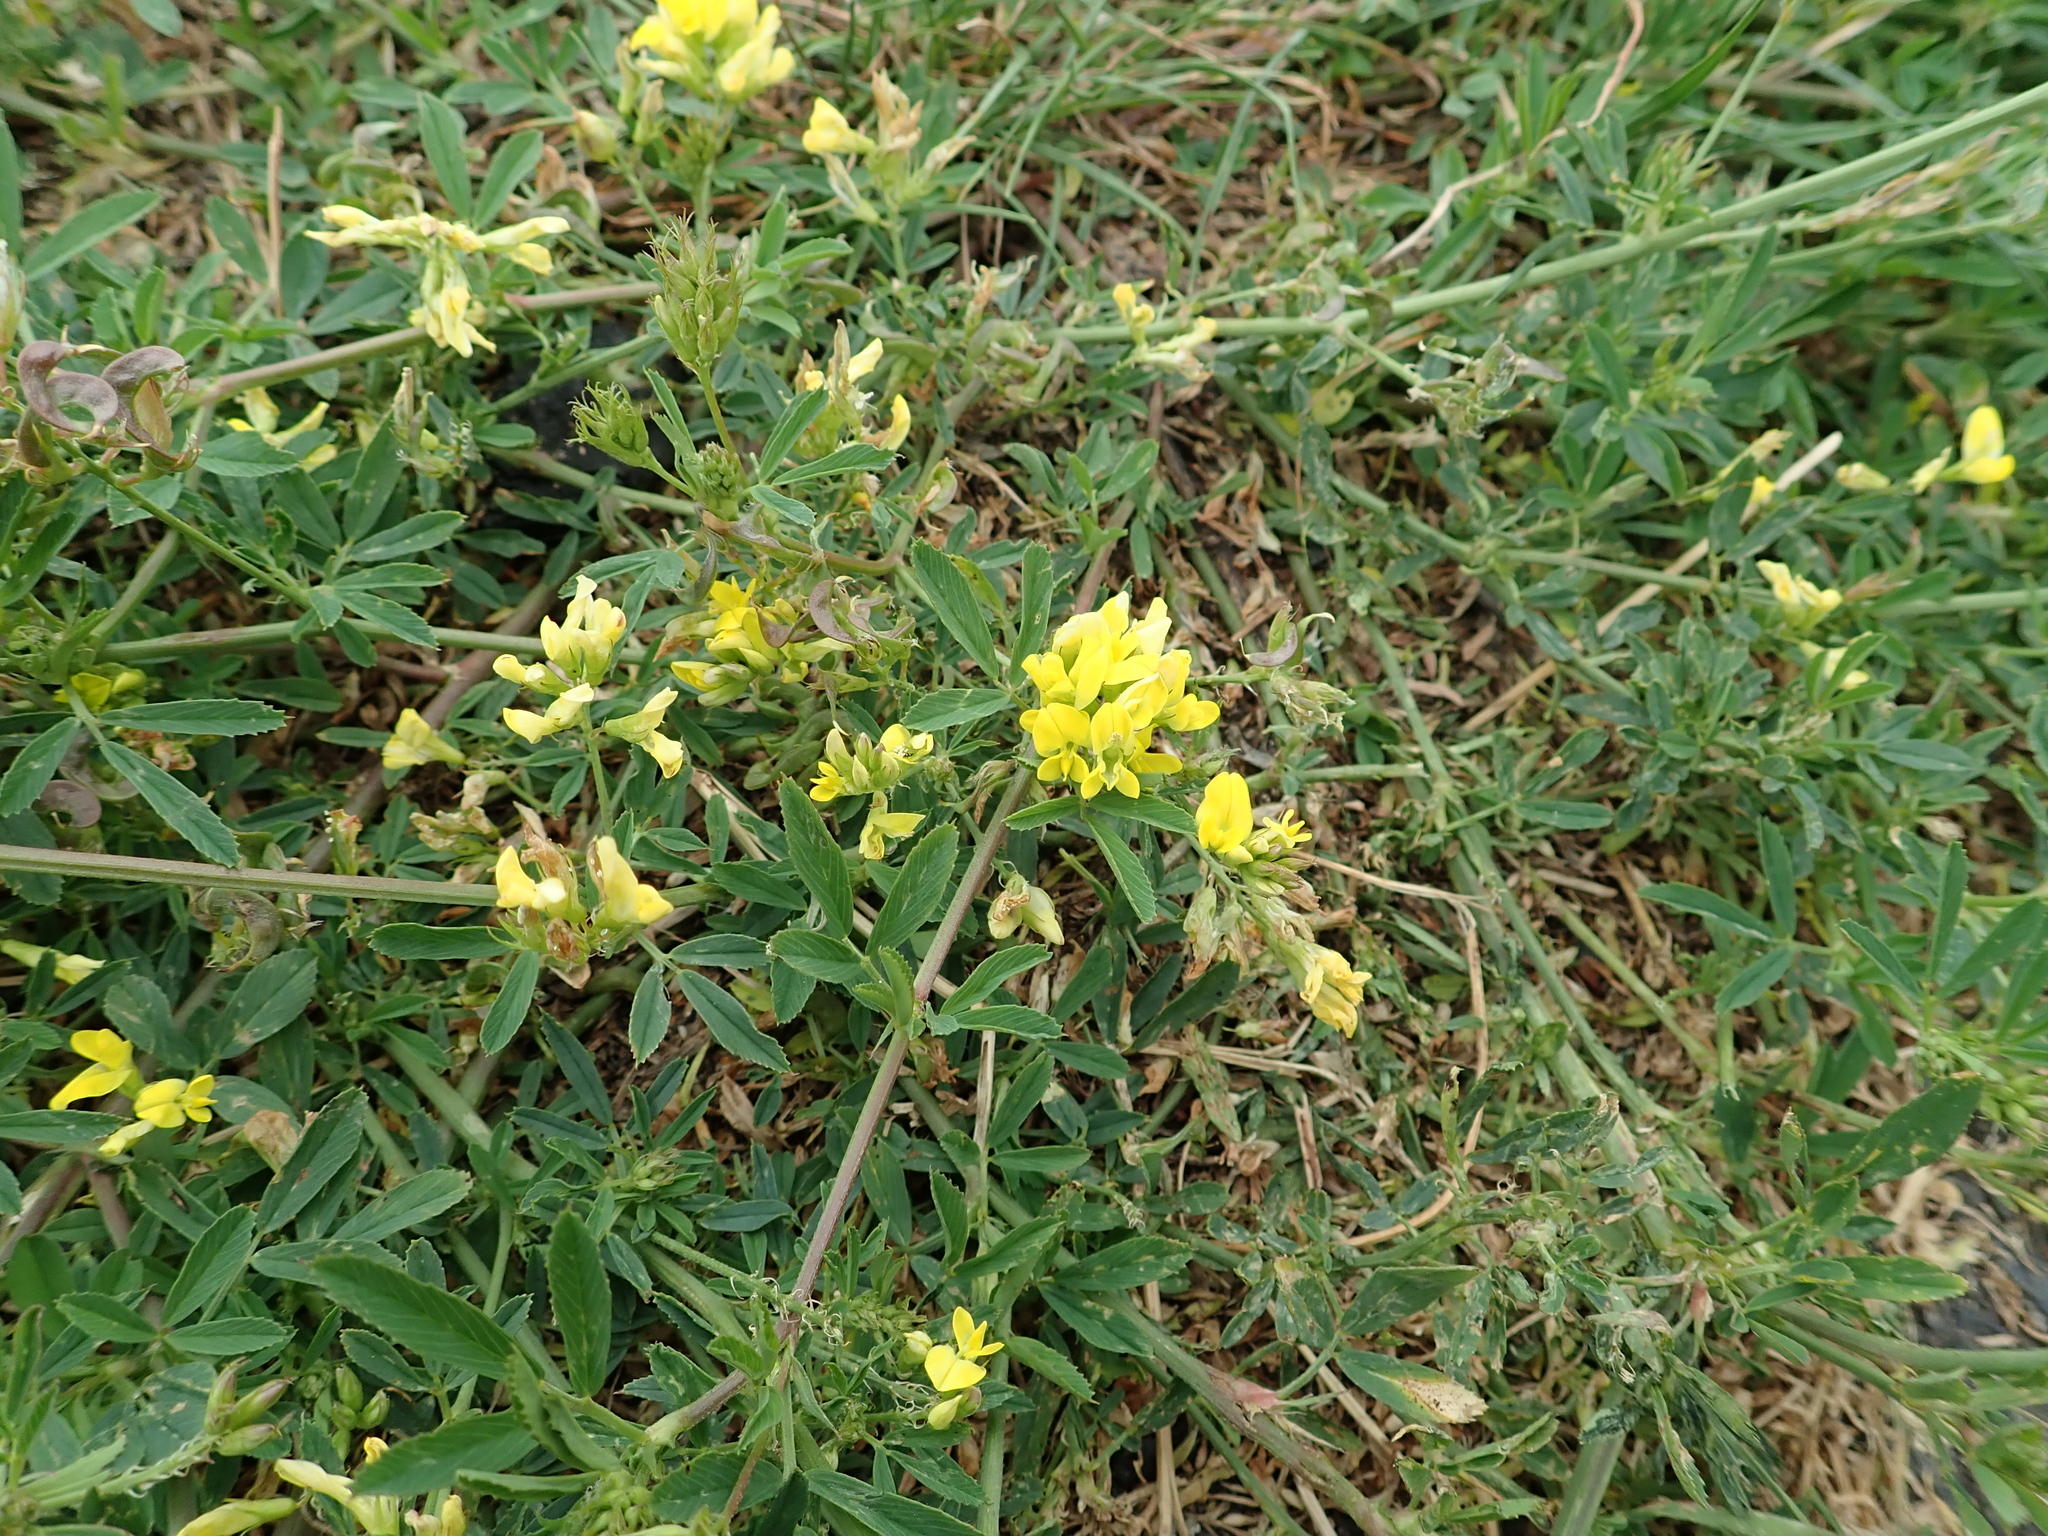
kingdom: Plantae
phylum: Tracheophyta
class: Magnoliopsida
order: Fabales
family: Fabaceae
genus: Medicago
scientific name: Medicago falcata
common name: Sickle medick
